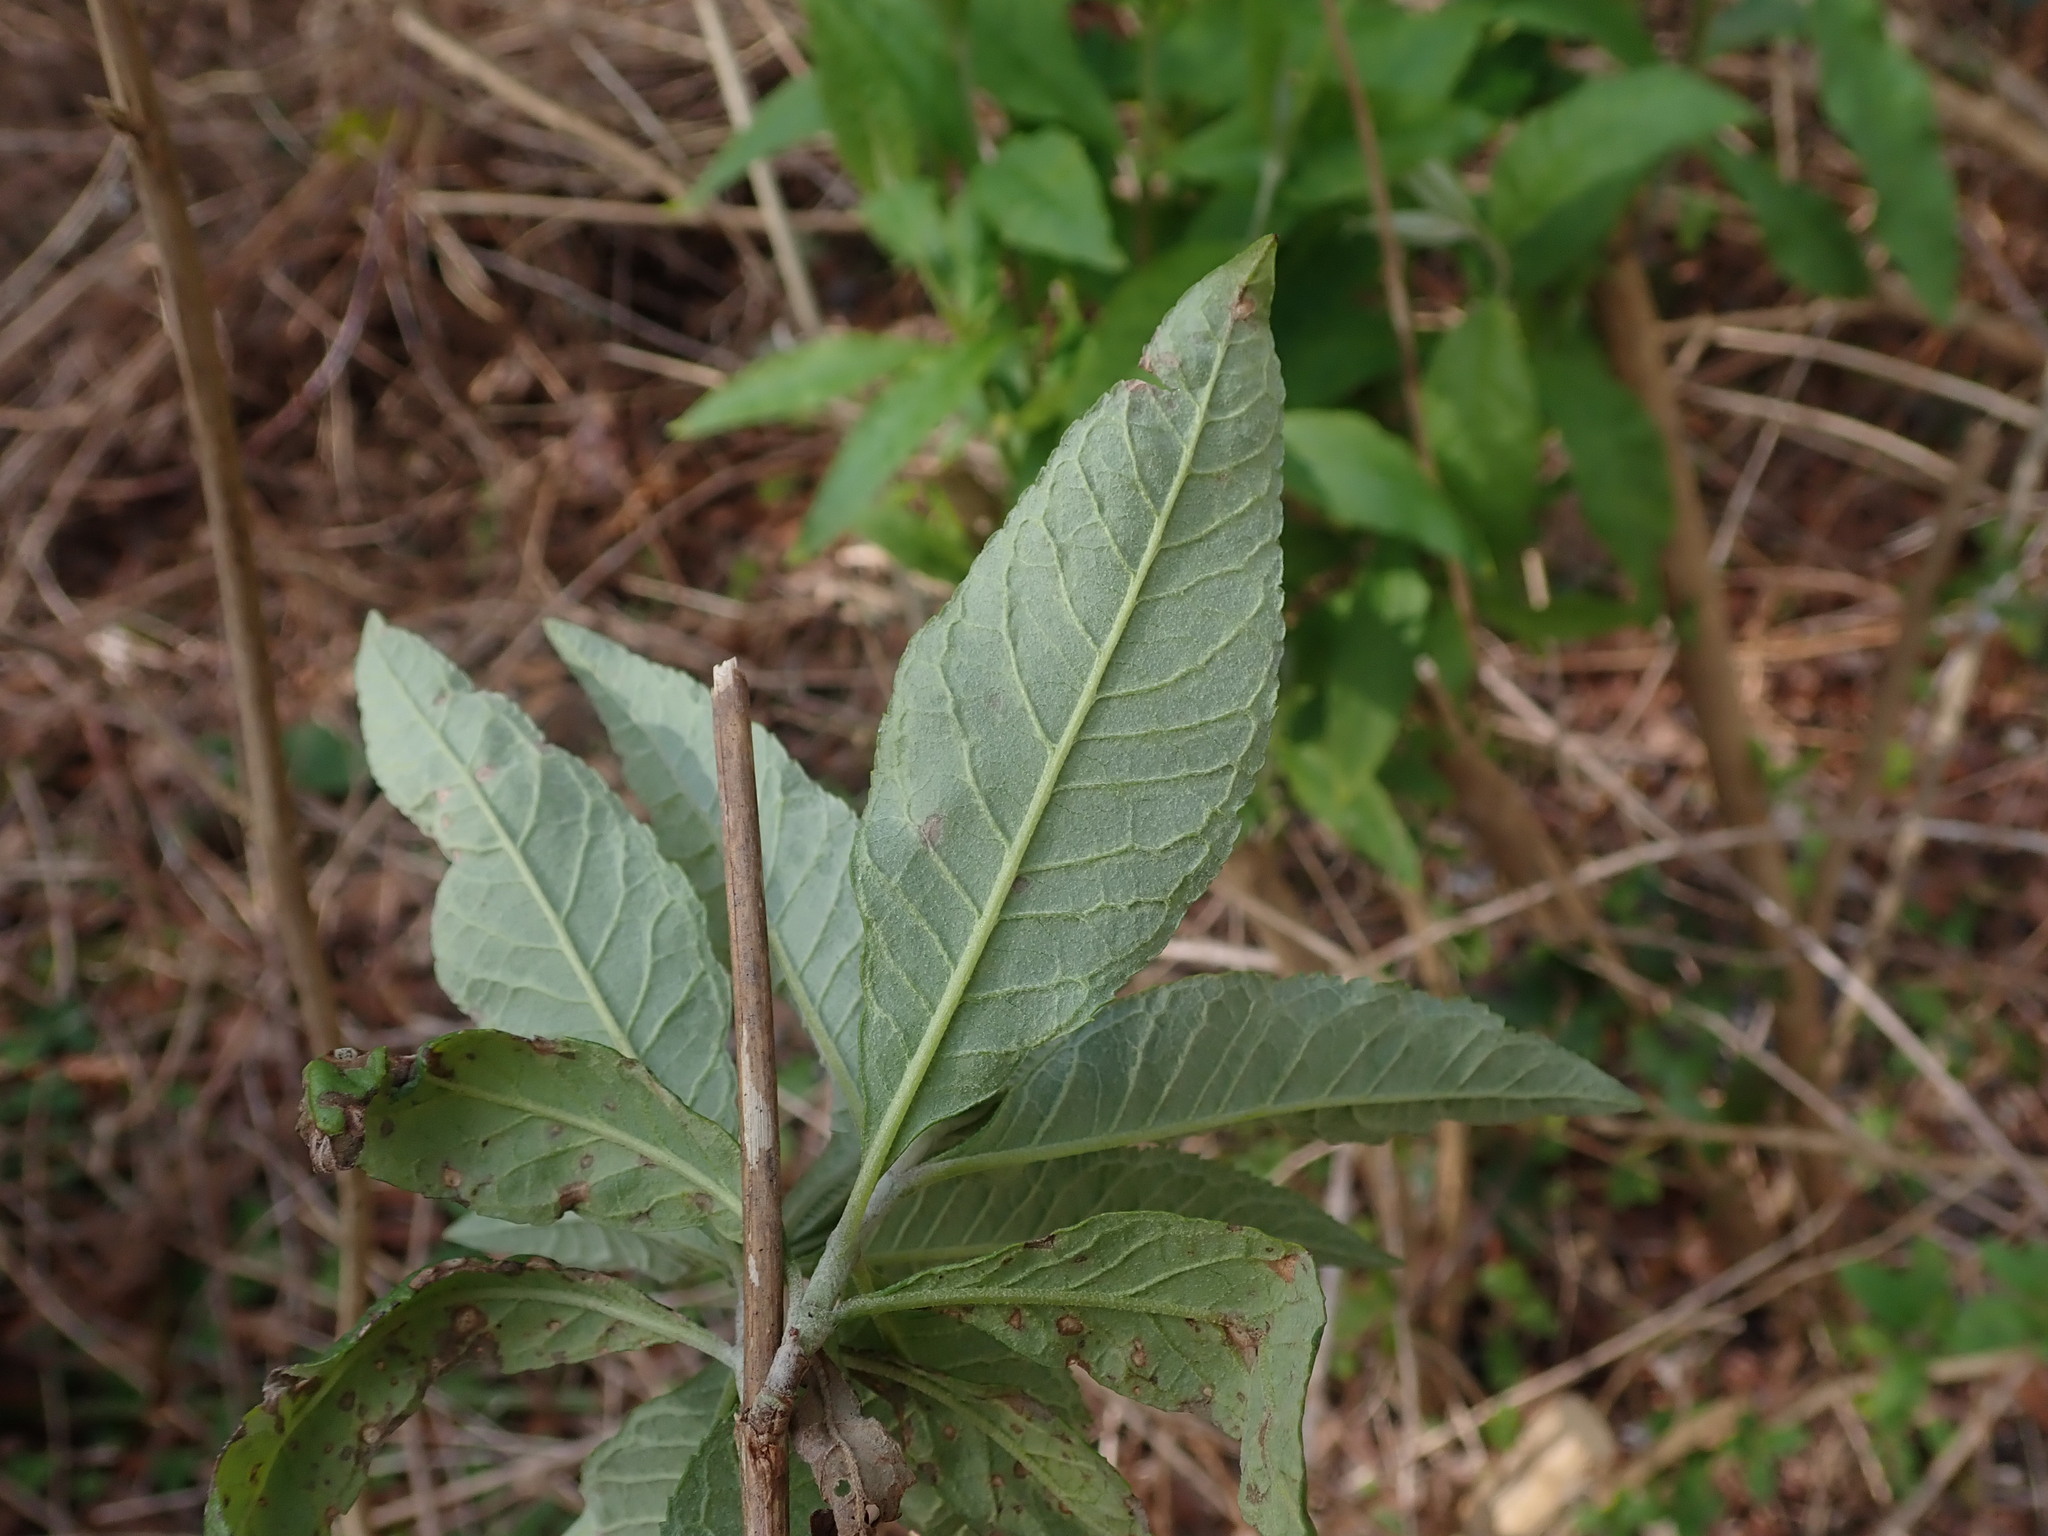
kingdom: Plantae
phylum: Tracheophyta
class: Magnoliopsida
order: Lamiales
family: Scrophulariaceae
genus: Buddleja
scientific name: Buddleja davidii
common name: Butterfly-bush
